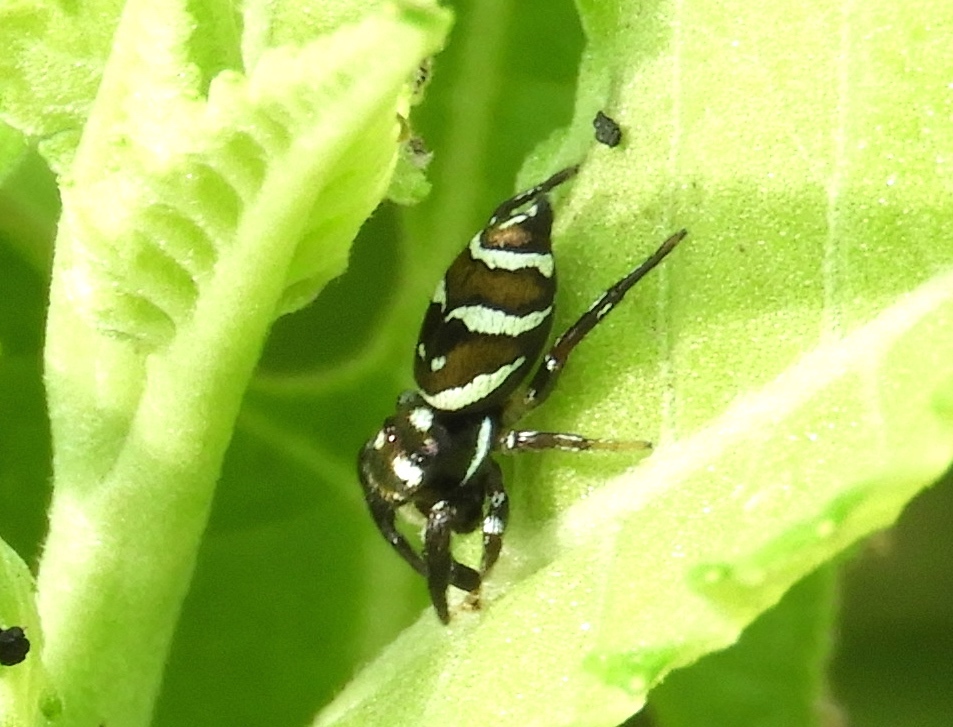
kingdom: Animalia
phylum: Arthropoda
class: Arachnida
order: Araneae
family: Salticidae
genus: Sassacus
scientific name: Sassacus
